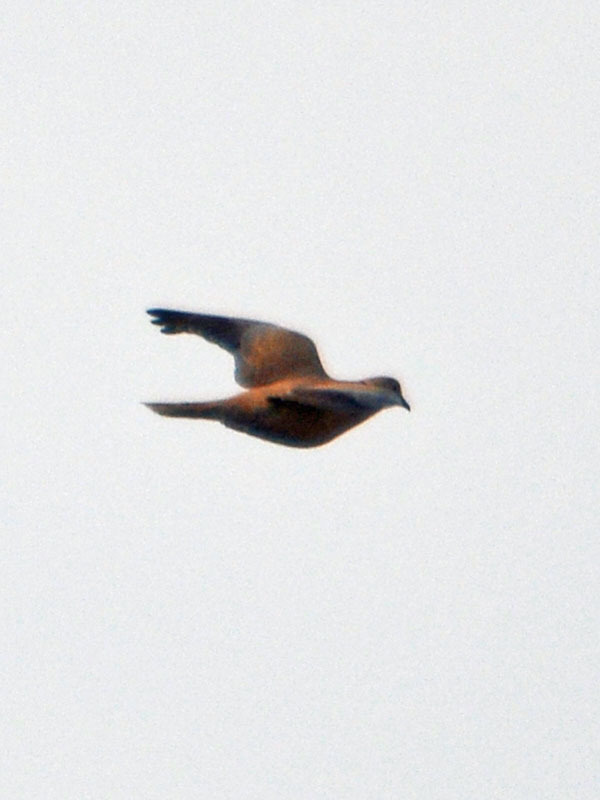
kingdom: Animalia
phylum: Chordata
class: Aves
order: Columbiformes
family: Columbidae
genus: Streptopelia
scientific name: Streptopelia decaocto
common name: Eurasian collared dove
